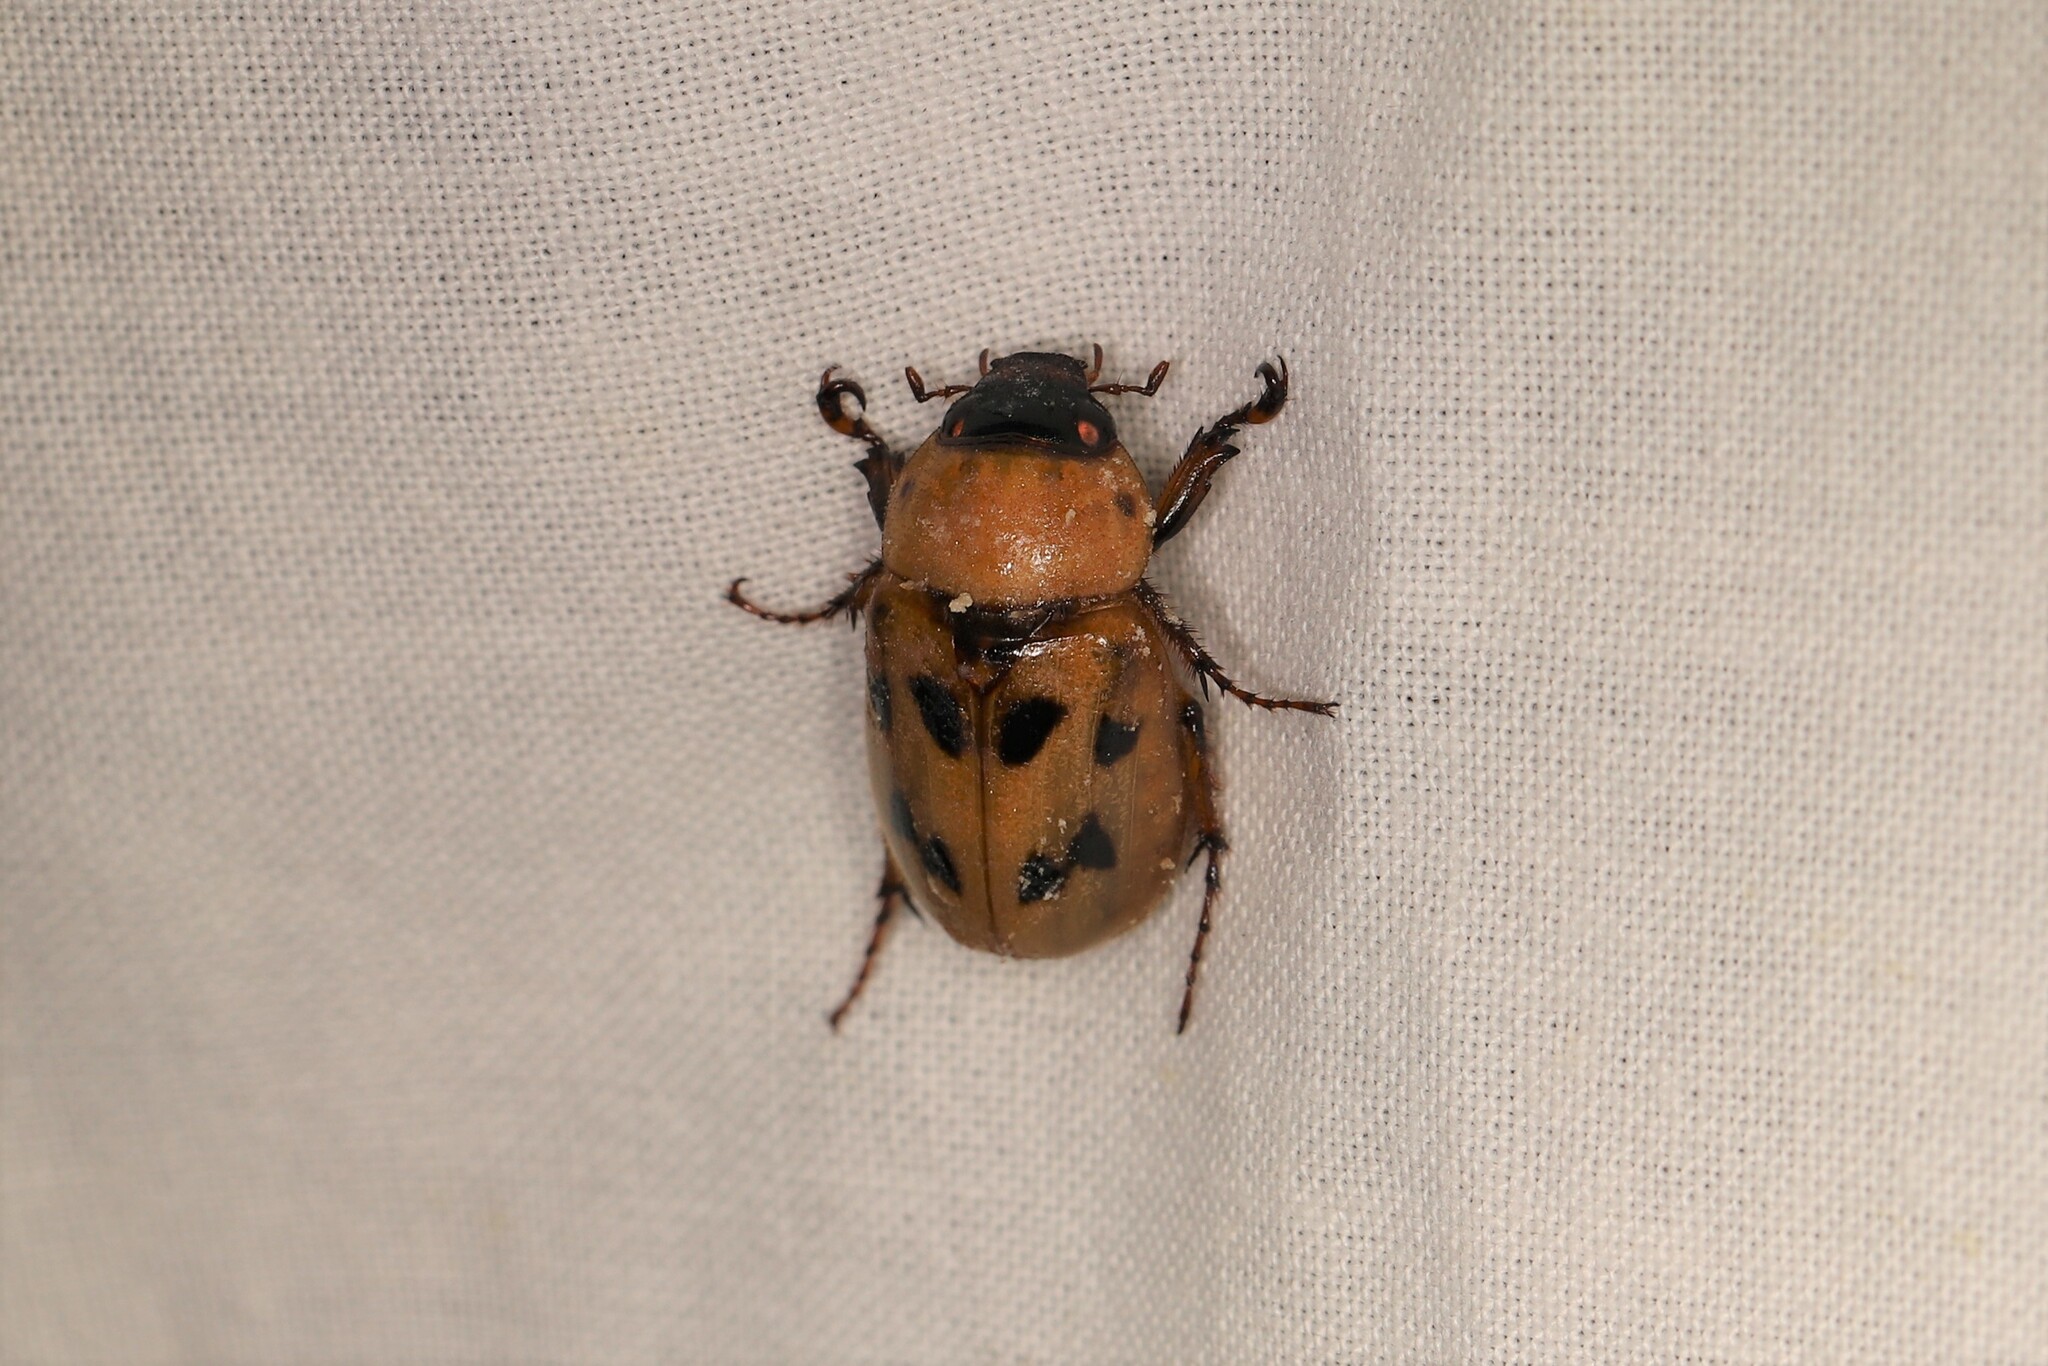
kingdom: Animalia
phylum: Arthropoda
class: Insecta
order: Coleoptera
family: Scarabaeidae
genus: Cyclocephala
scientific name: Cyclocephala brittoni
